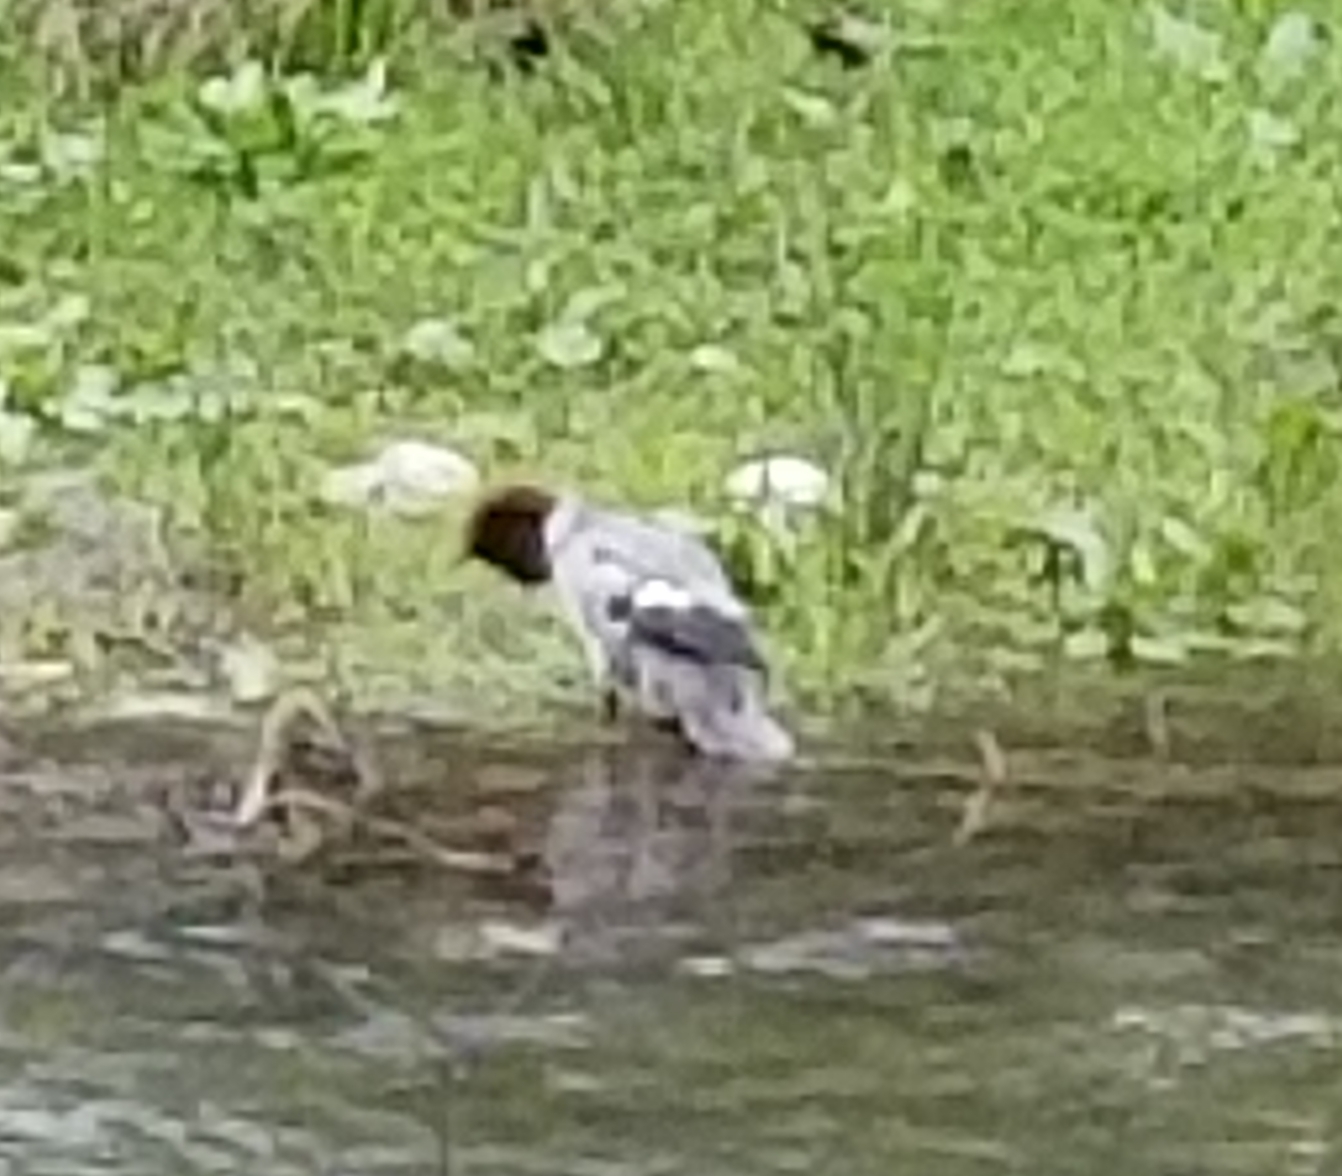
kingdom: Animalia
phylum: Chordata
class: Aves
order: Anseriformes
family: Anatidae
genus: Mergus
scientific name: Mergus merganser
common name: Common merganser
